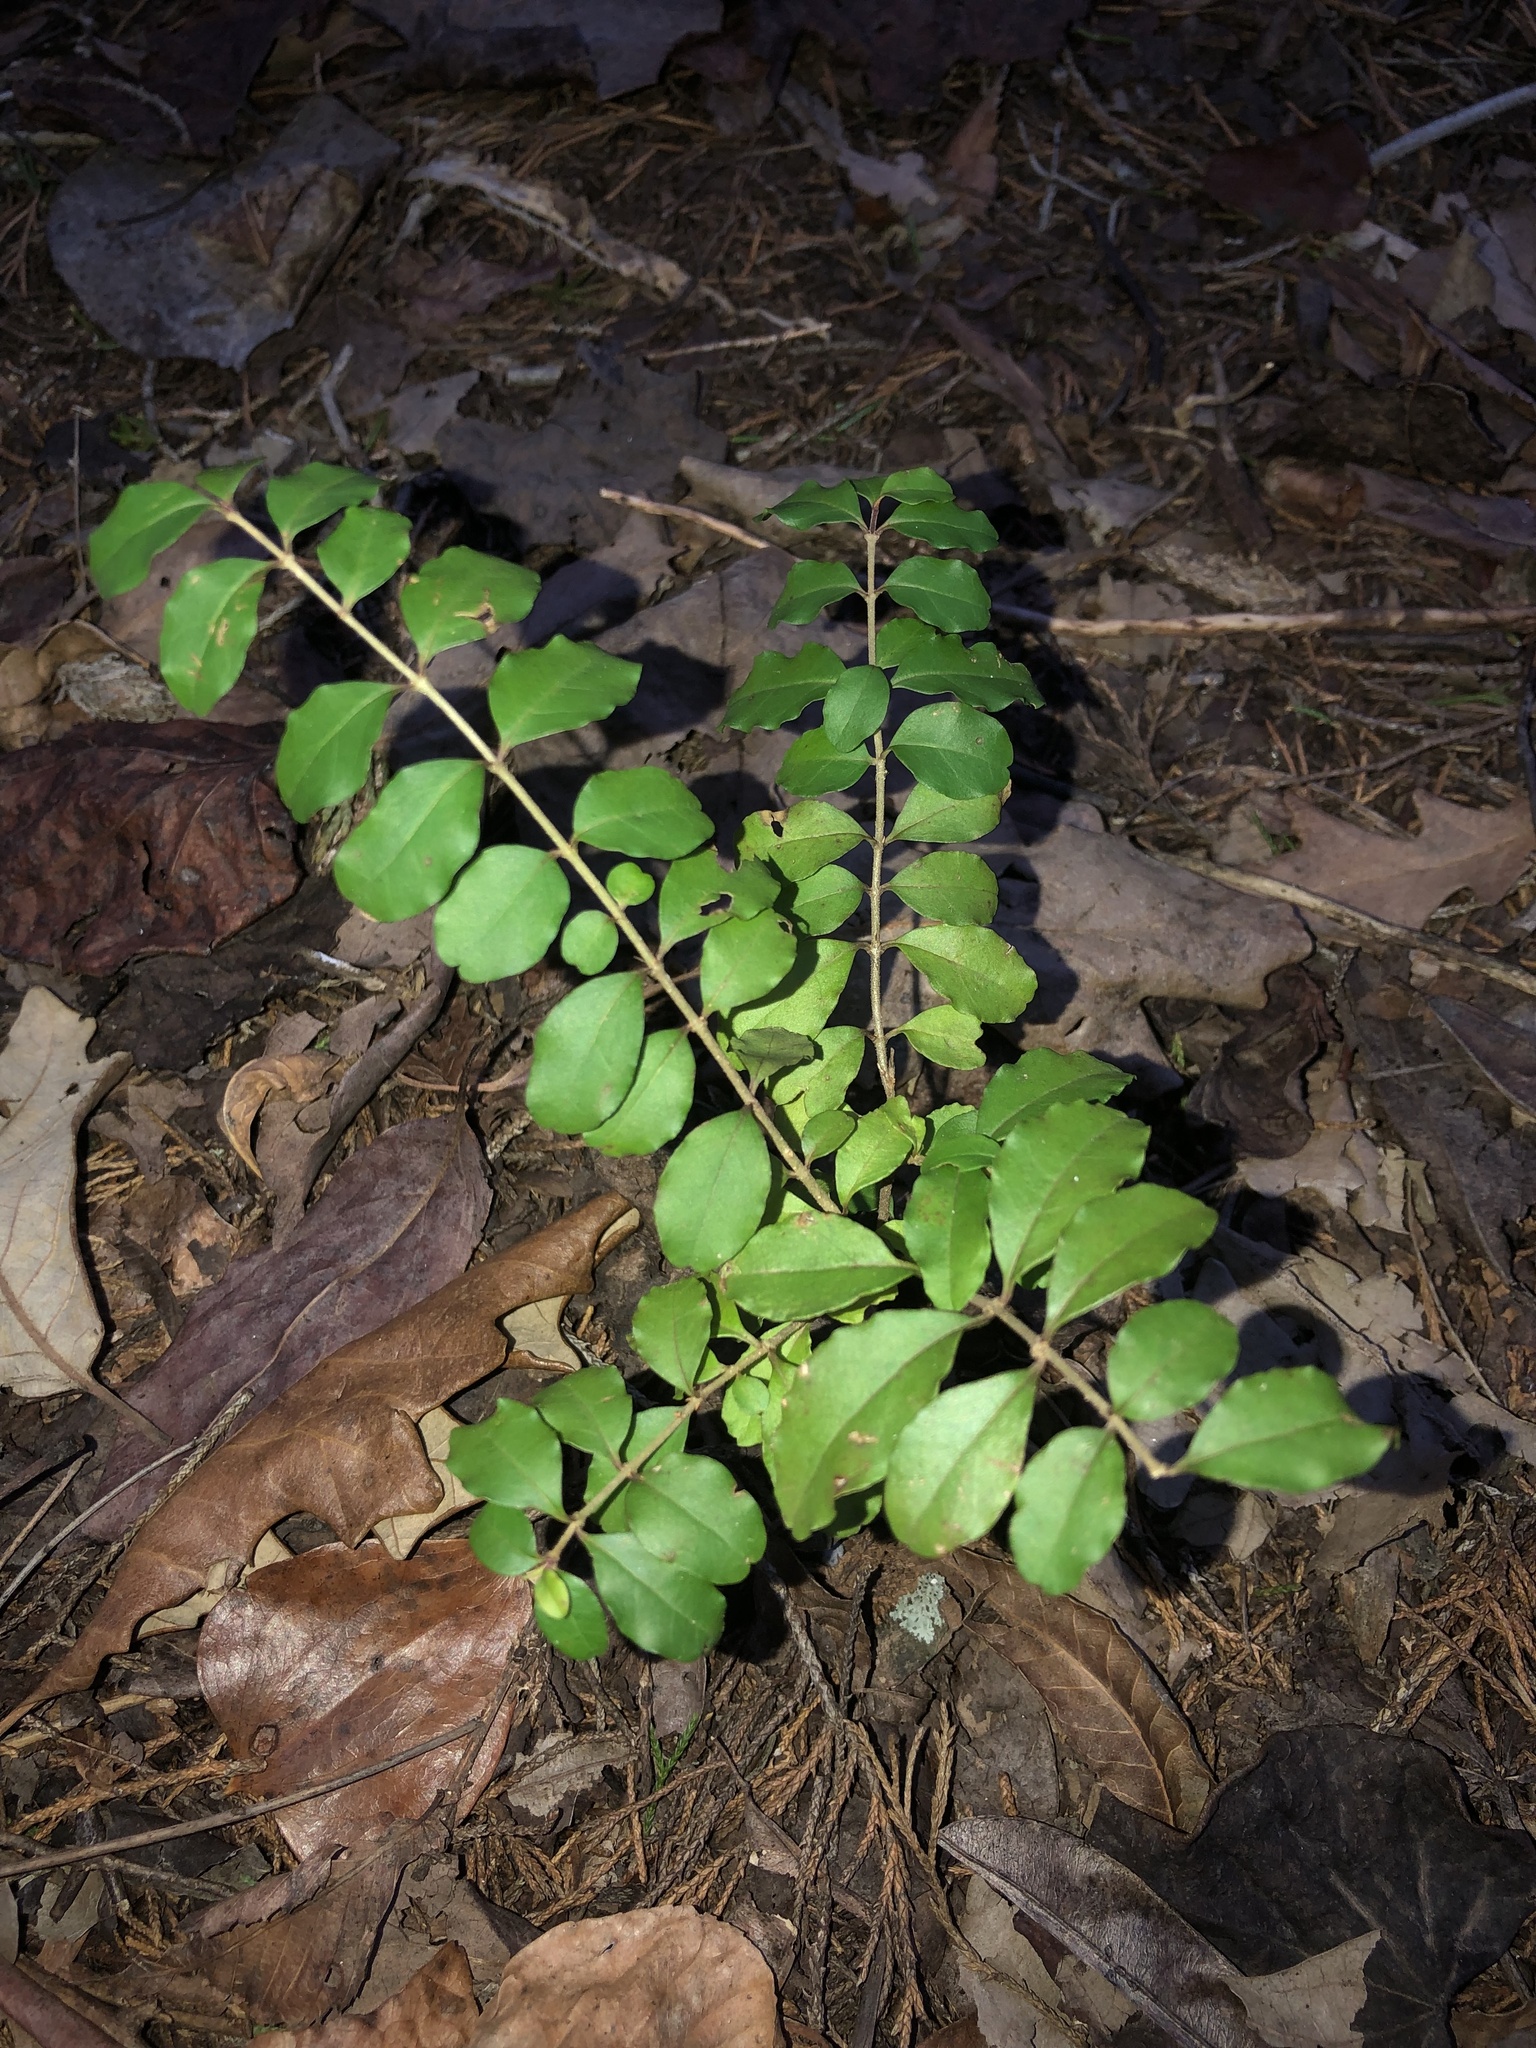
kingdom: Plantae
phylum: Tracheophyta
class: Magnoliopsida
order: Lamiales
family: Oleaceae
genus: Ligustrum
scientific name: Ligustrum sinense
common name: Chinese privet
